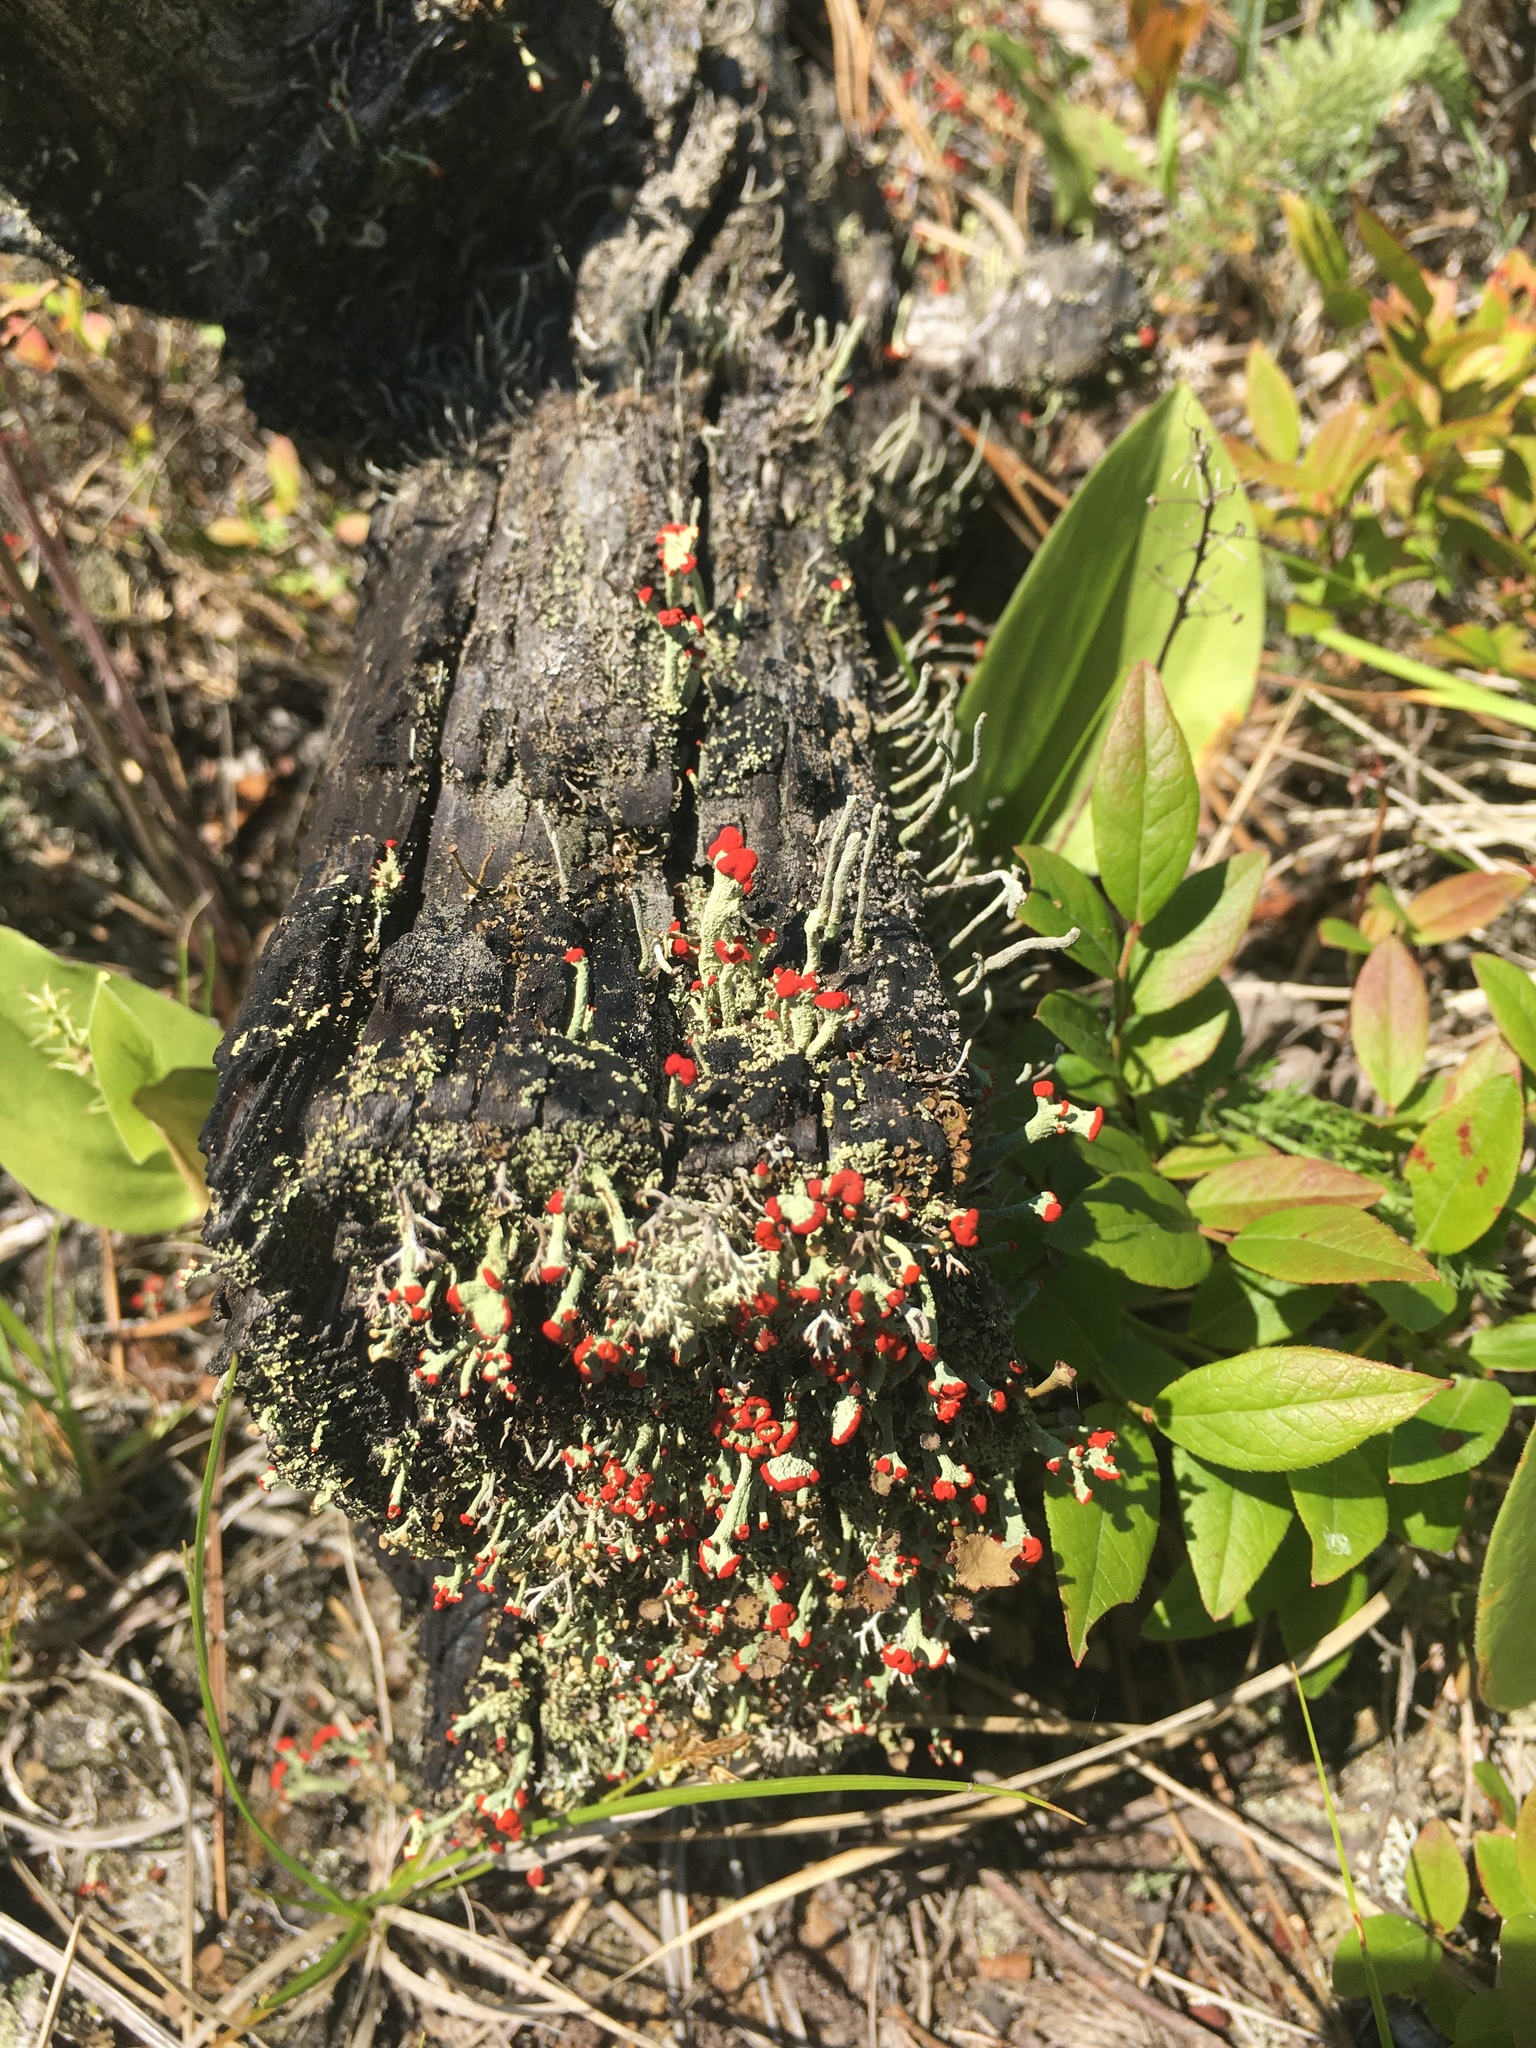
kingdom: Fungi
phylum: Ascomycota
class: Lecanoromycetes
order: Lecanorales
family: Cladoniaceae
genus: Cladonia
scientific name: Cladonia cristatella
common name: British soldier lichen
